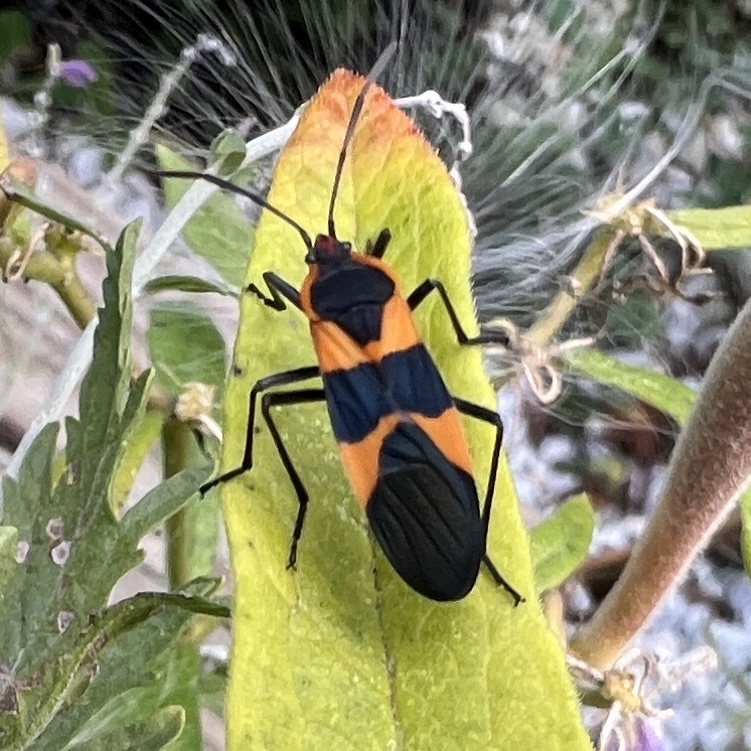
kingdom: Animalia
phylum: Arthropoda
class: Insecta
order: Hemiptera
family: Lygaeidae
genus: Oncopeltus
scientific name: Oncopeltus fasciatus
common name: Large milkweed bug
